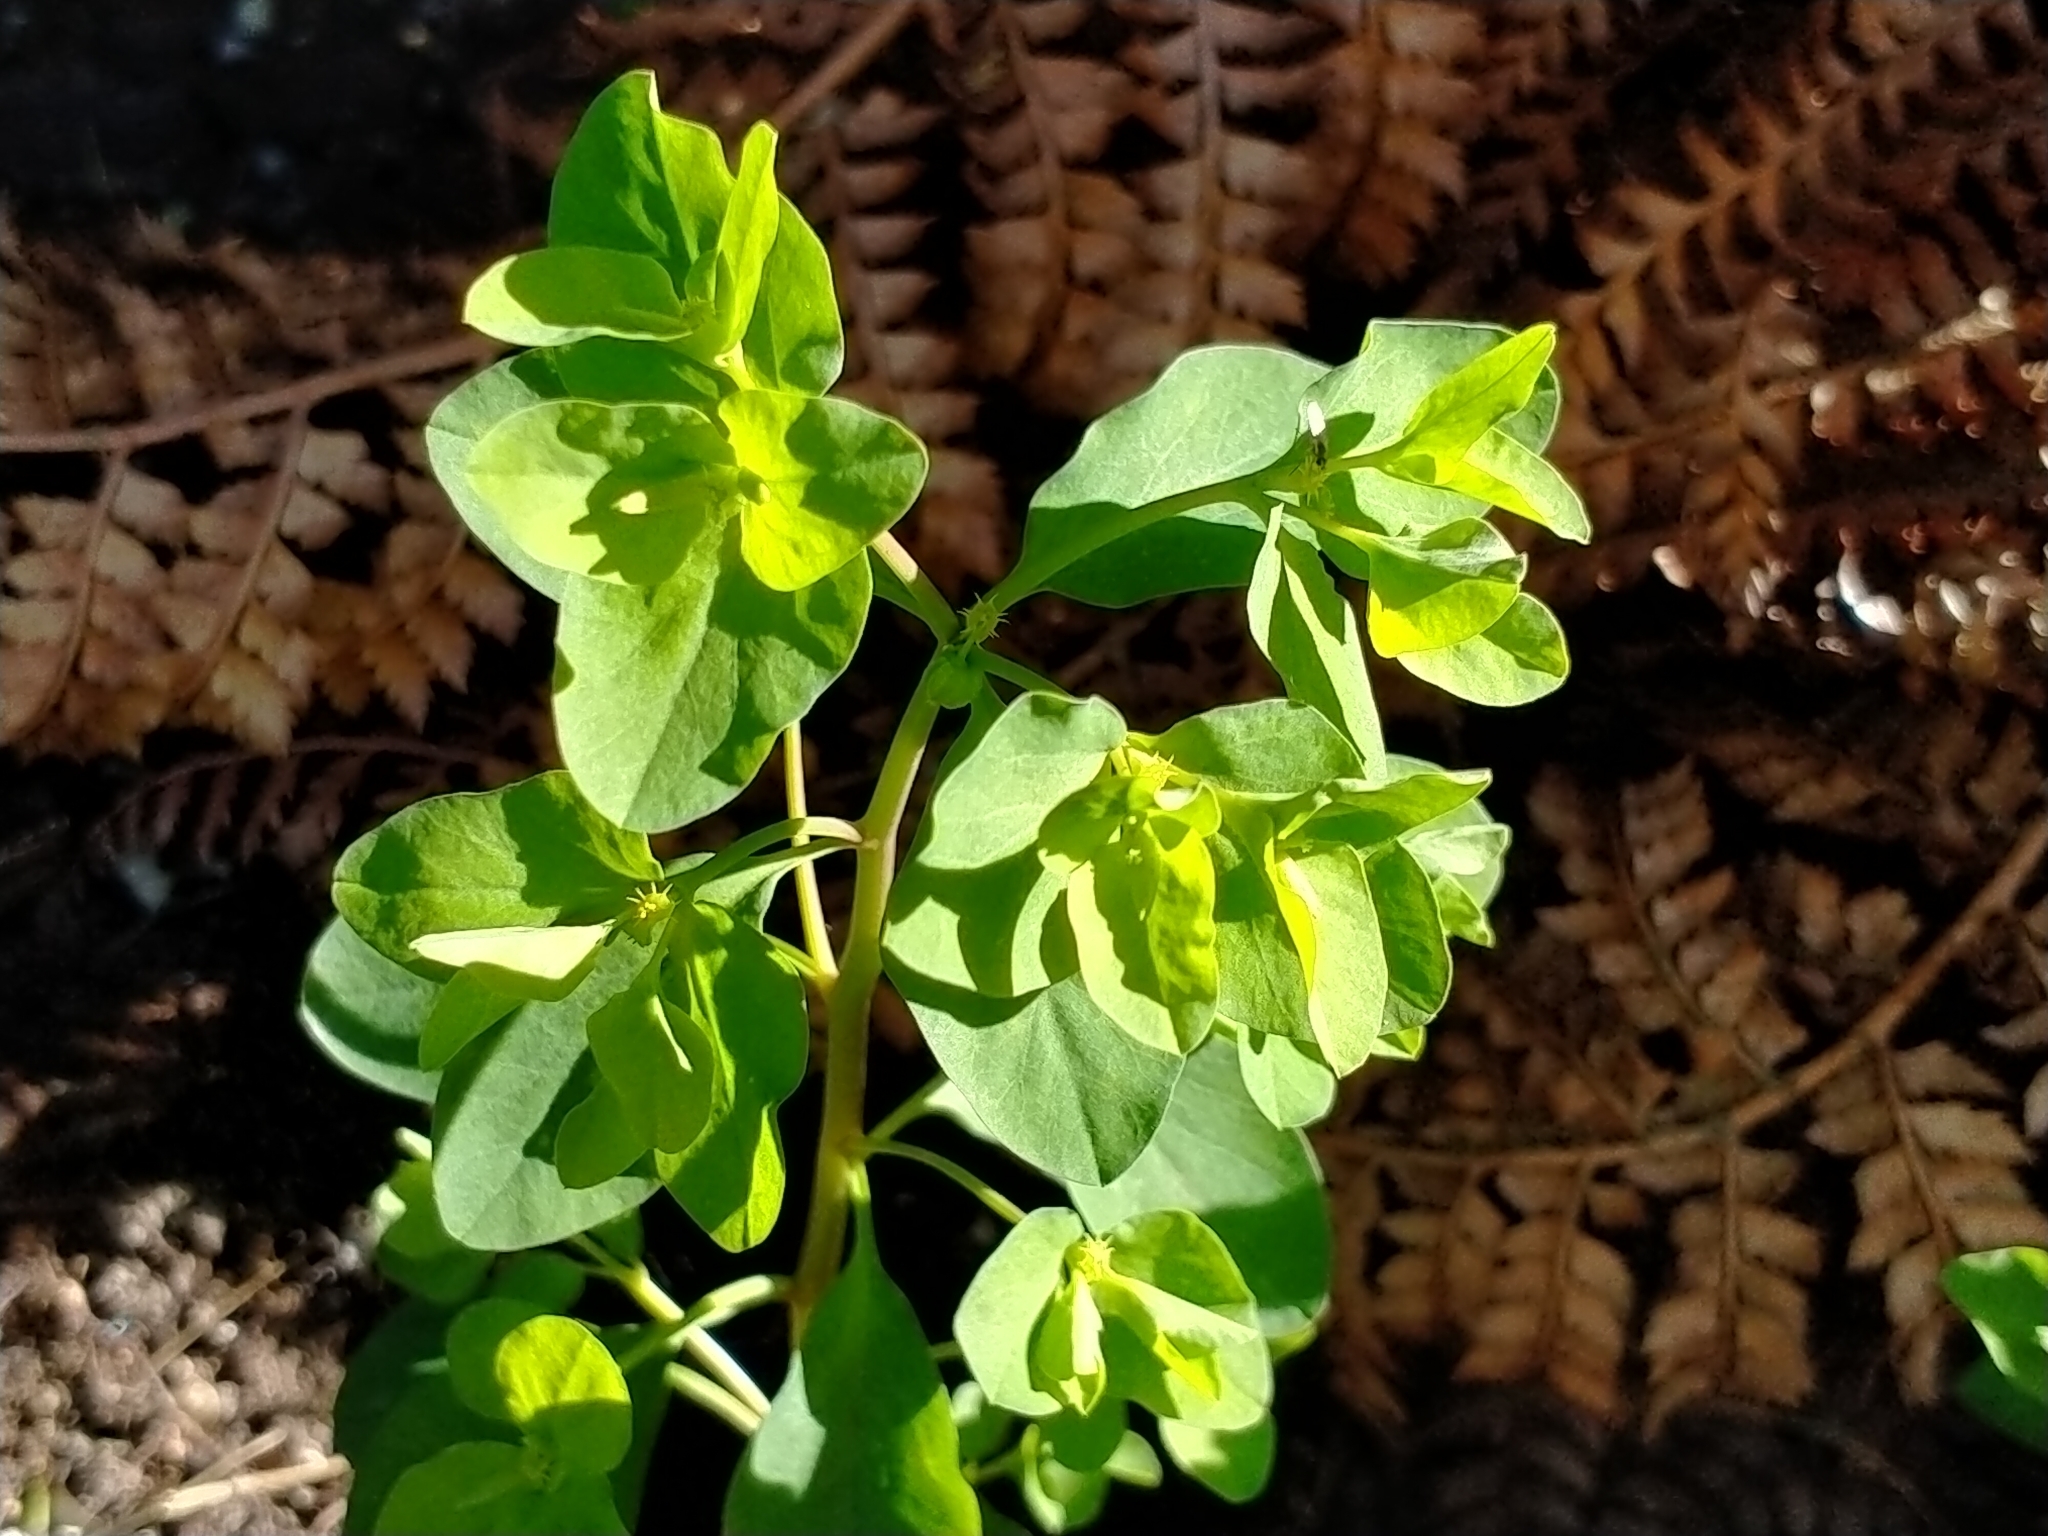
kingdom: Plantae
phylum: Tracheophyta
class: Magnoliopsida
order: Malpighiales
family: Euphorbiaceae
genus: Euphorbia
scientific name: Euphorbia peplus
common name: Petty spurge
